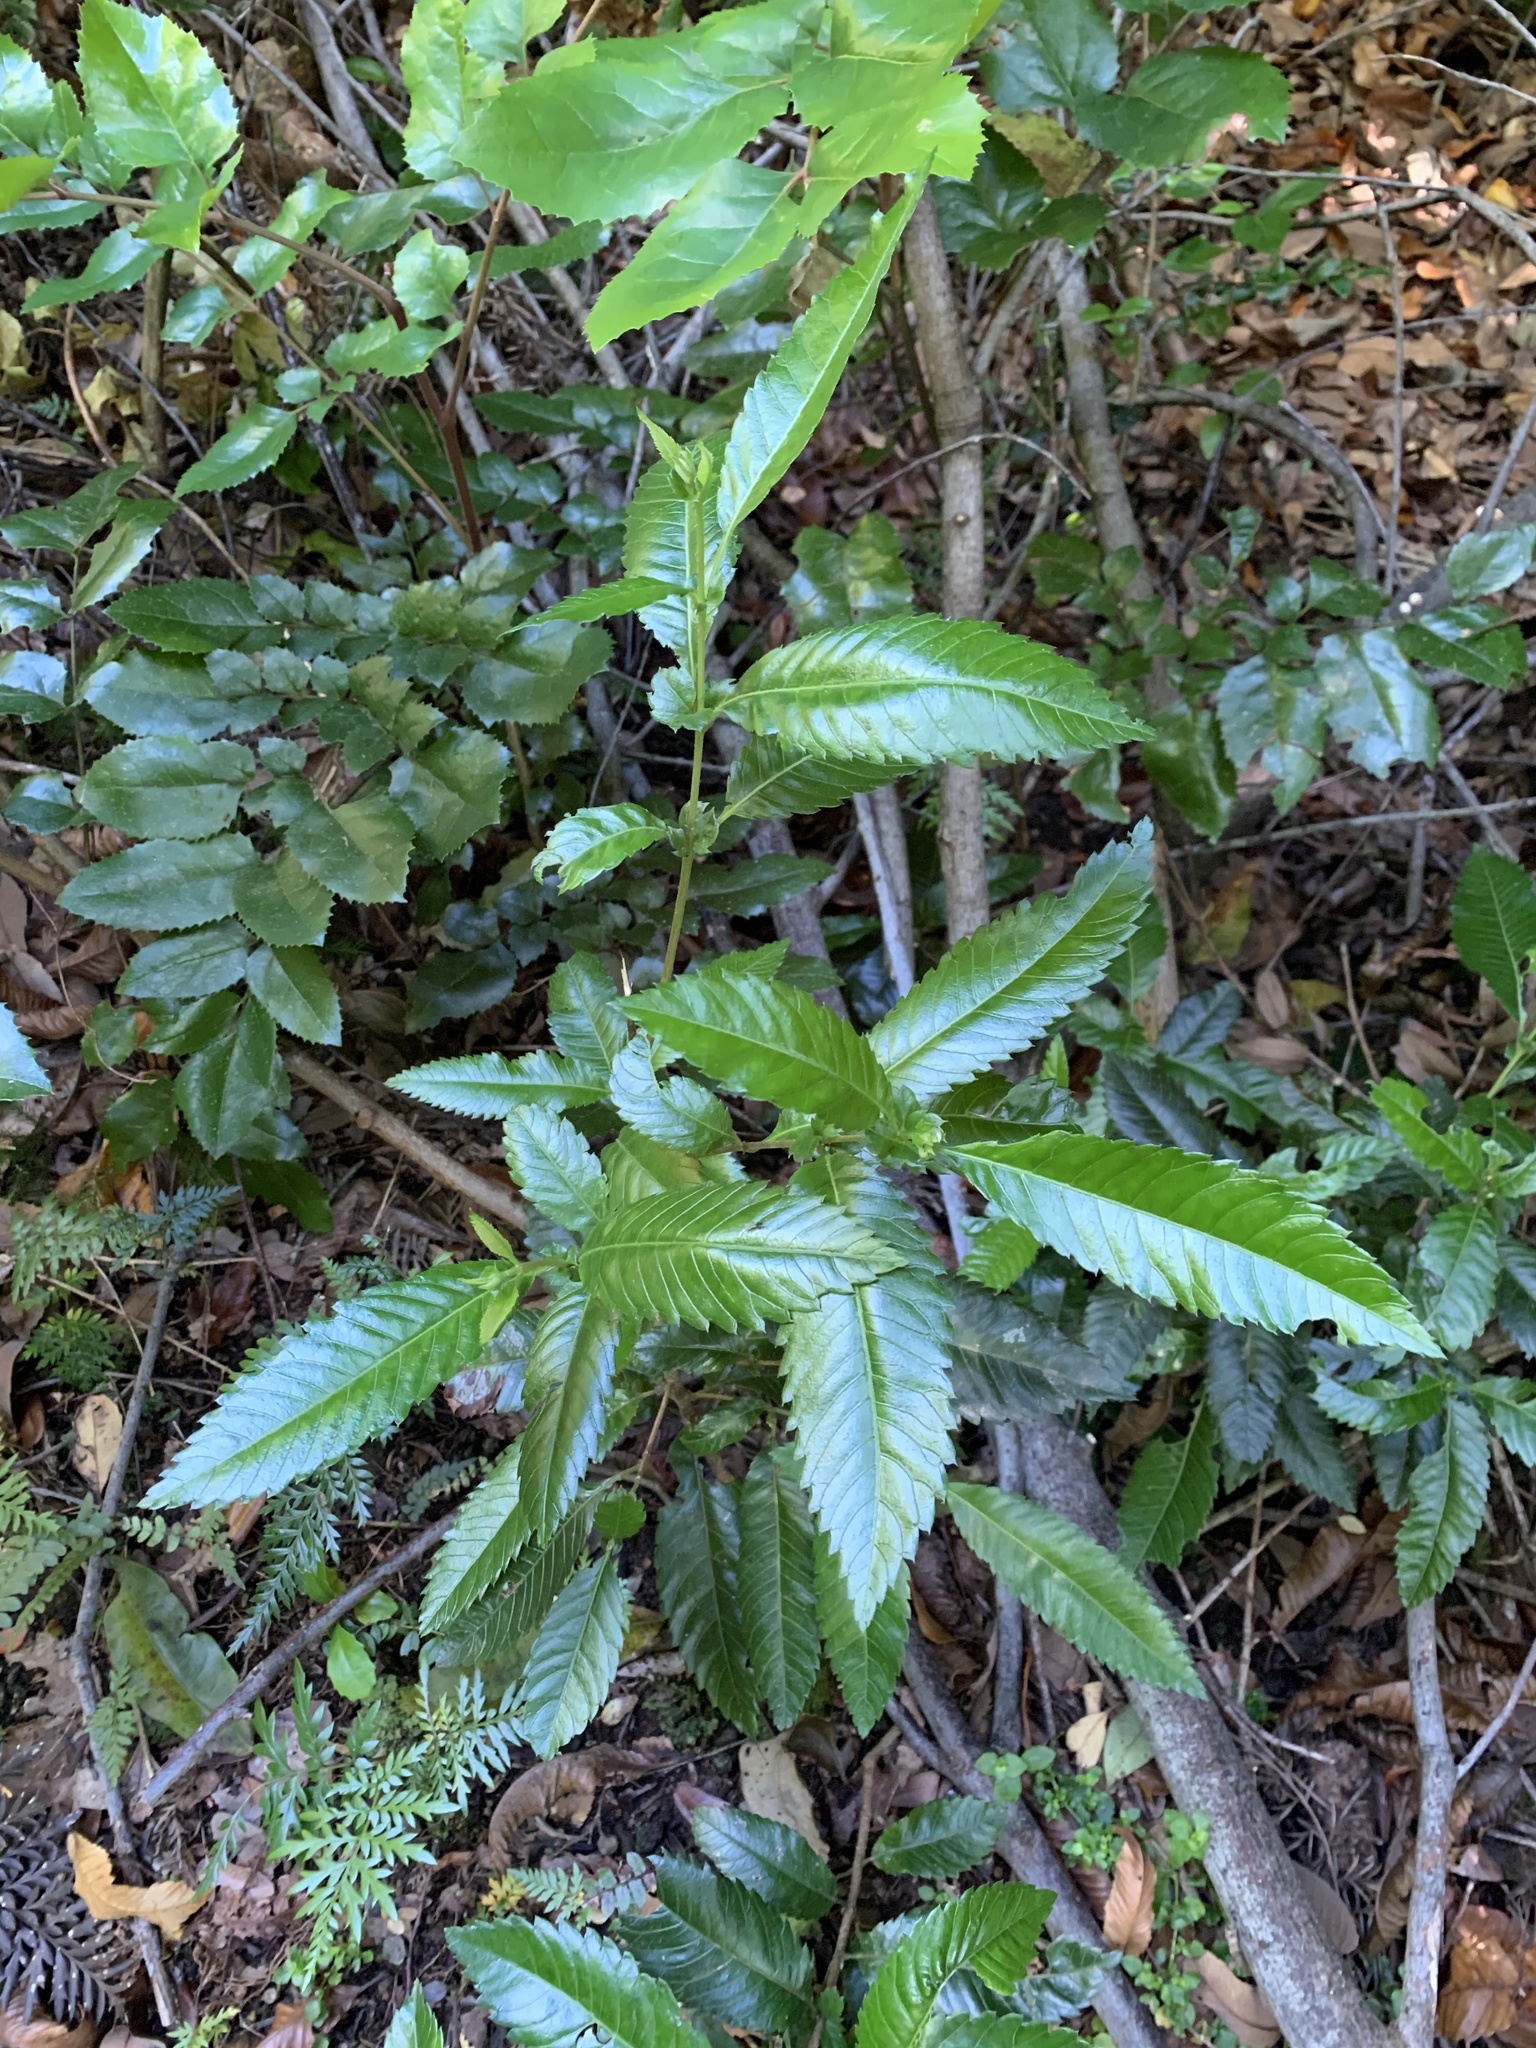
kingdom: Plantae
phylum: Tracheophyta
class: Magnoliopsida
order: Oxalidales
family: Cunoniaceae
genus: Caldcluvia
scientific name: Caldcluvia paniculata
